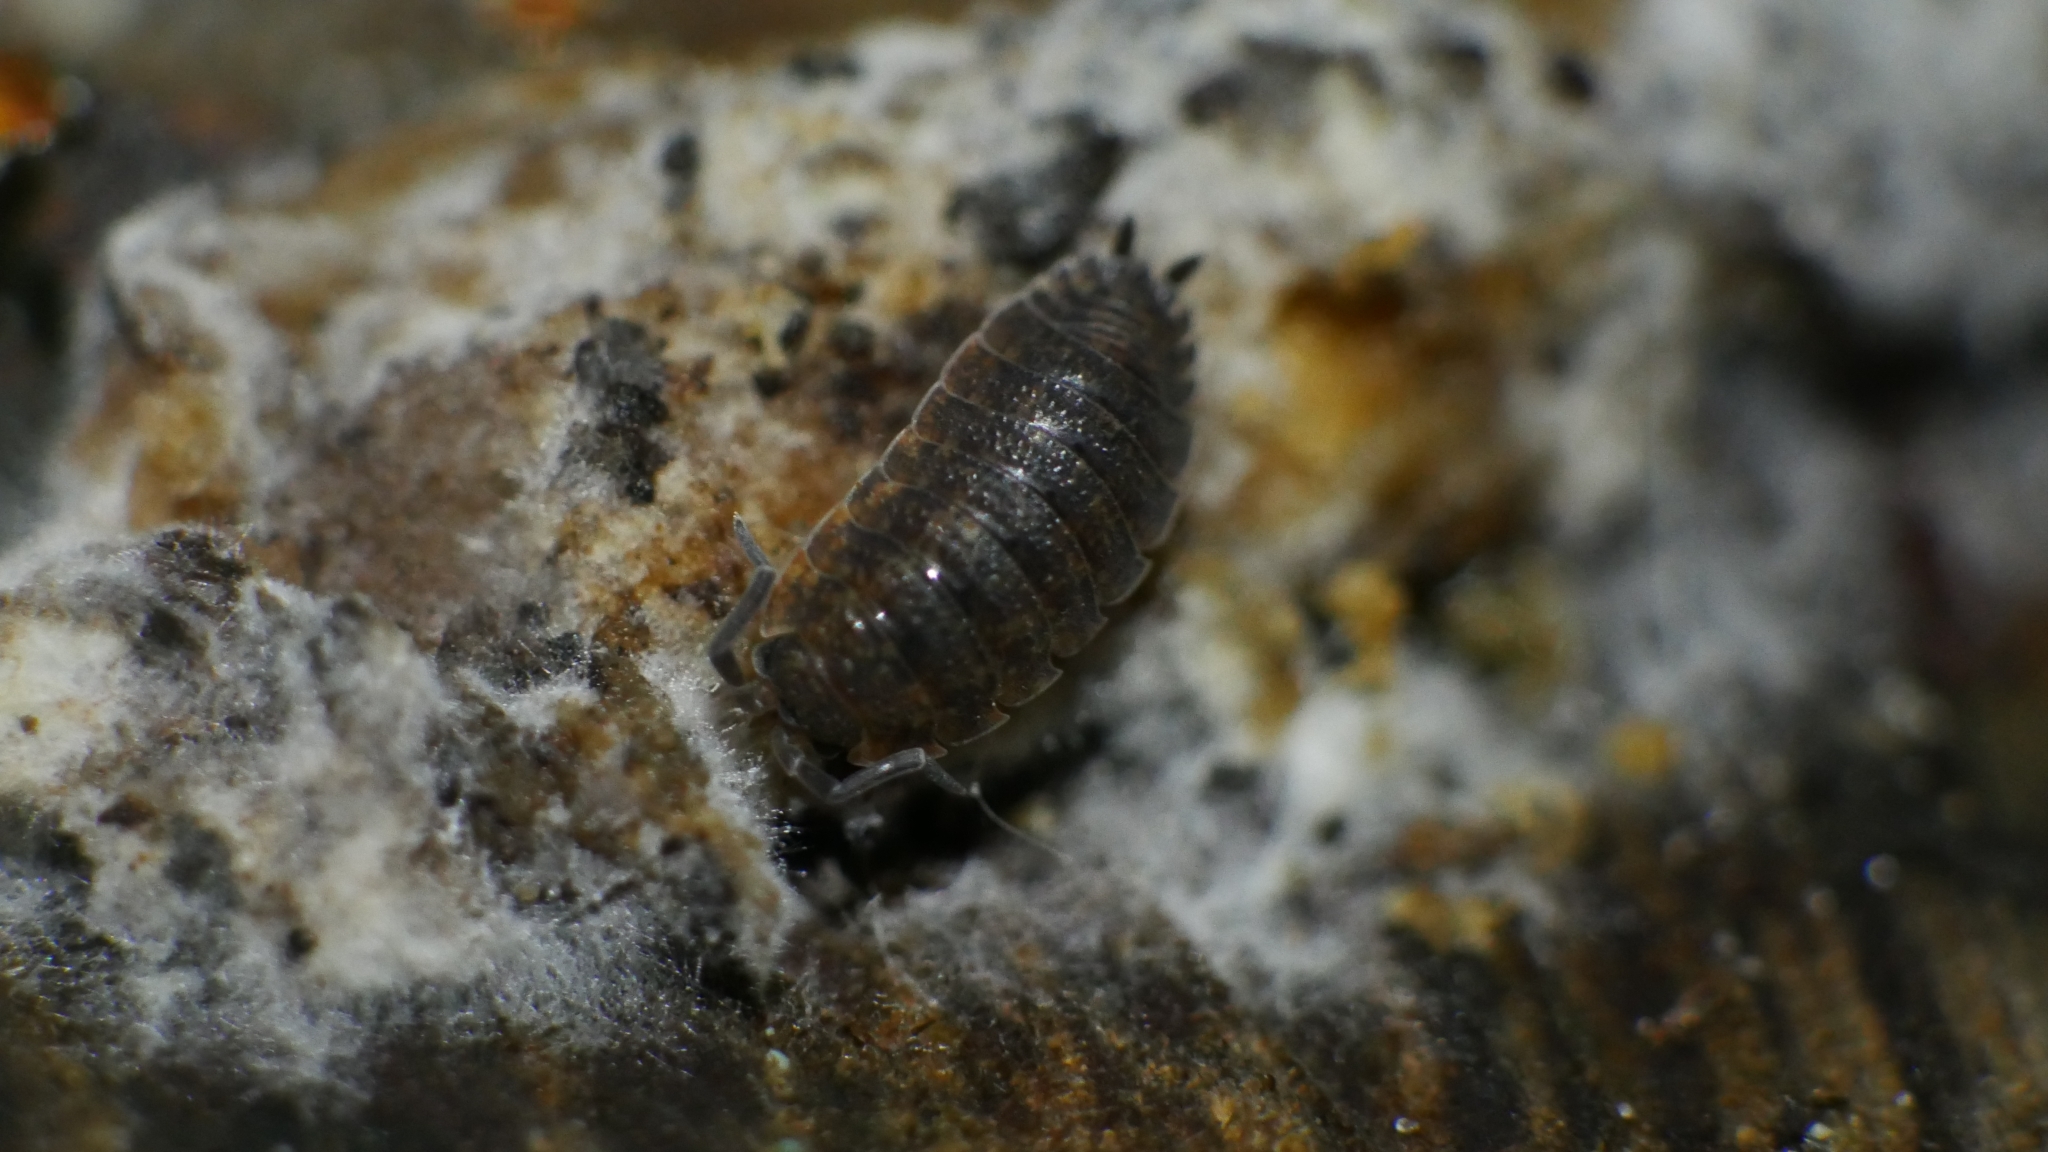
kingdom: Animalia
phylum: Arthropoda
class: Malacostraca
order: Isopoda
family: Porcellionidae
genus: Porcellio
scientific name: Porcellio scaber
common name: Common rough woodlouse
